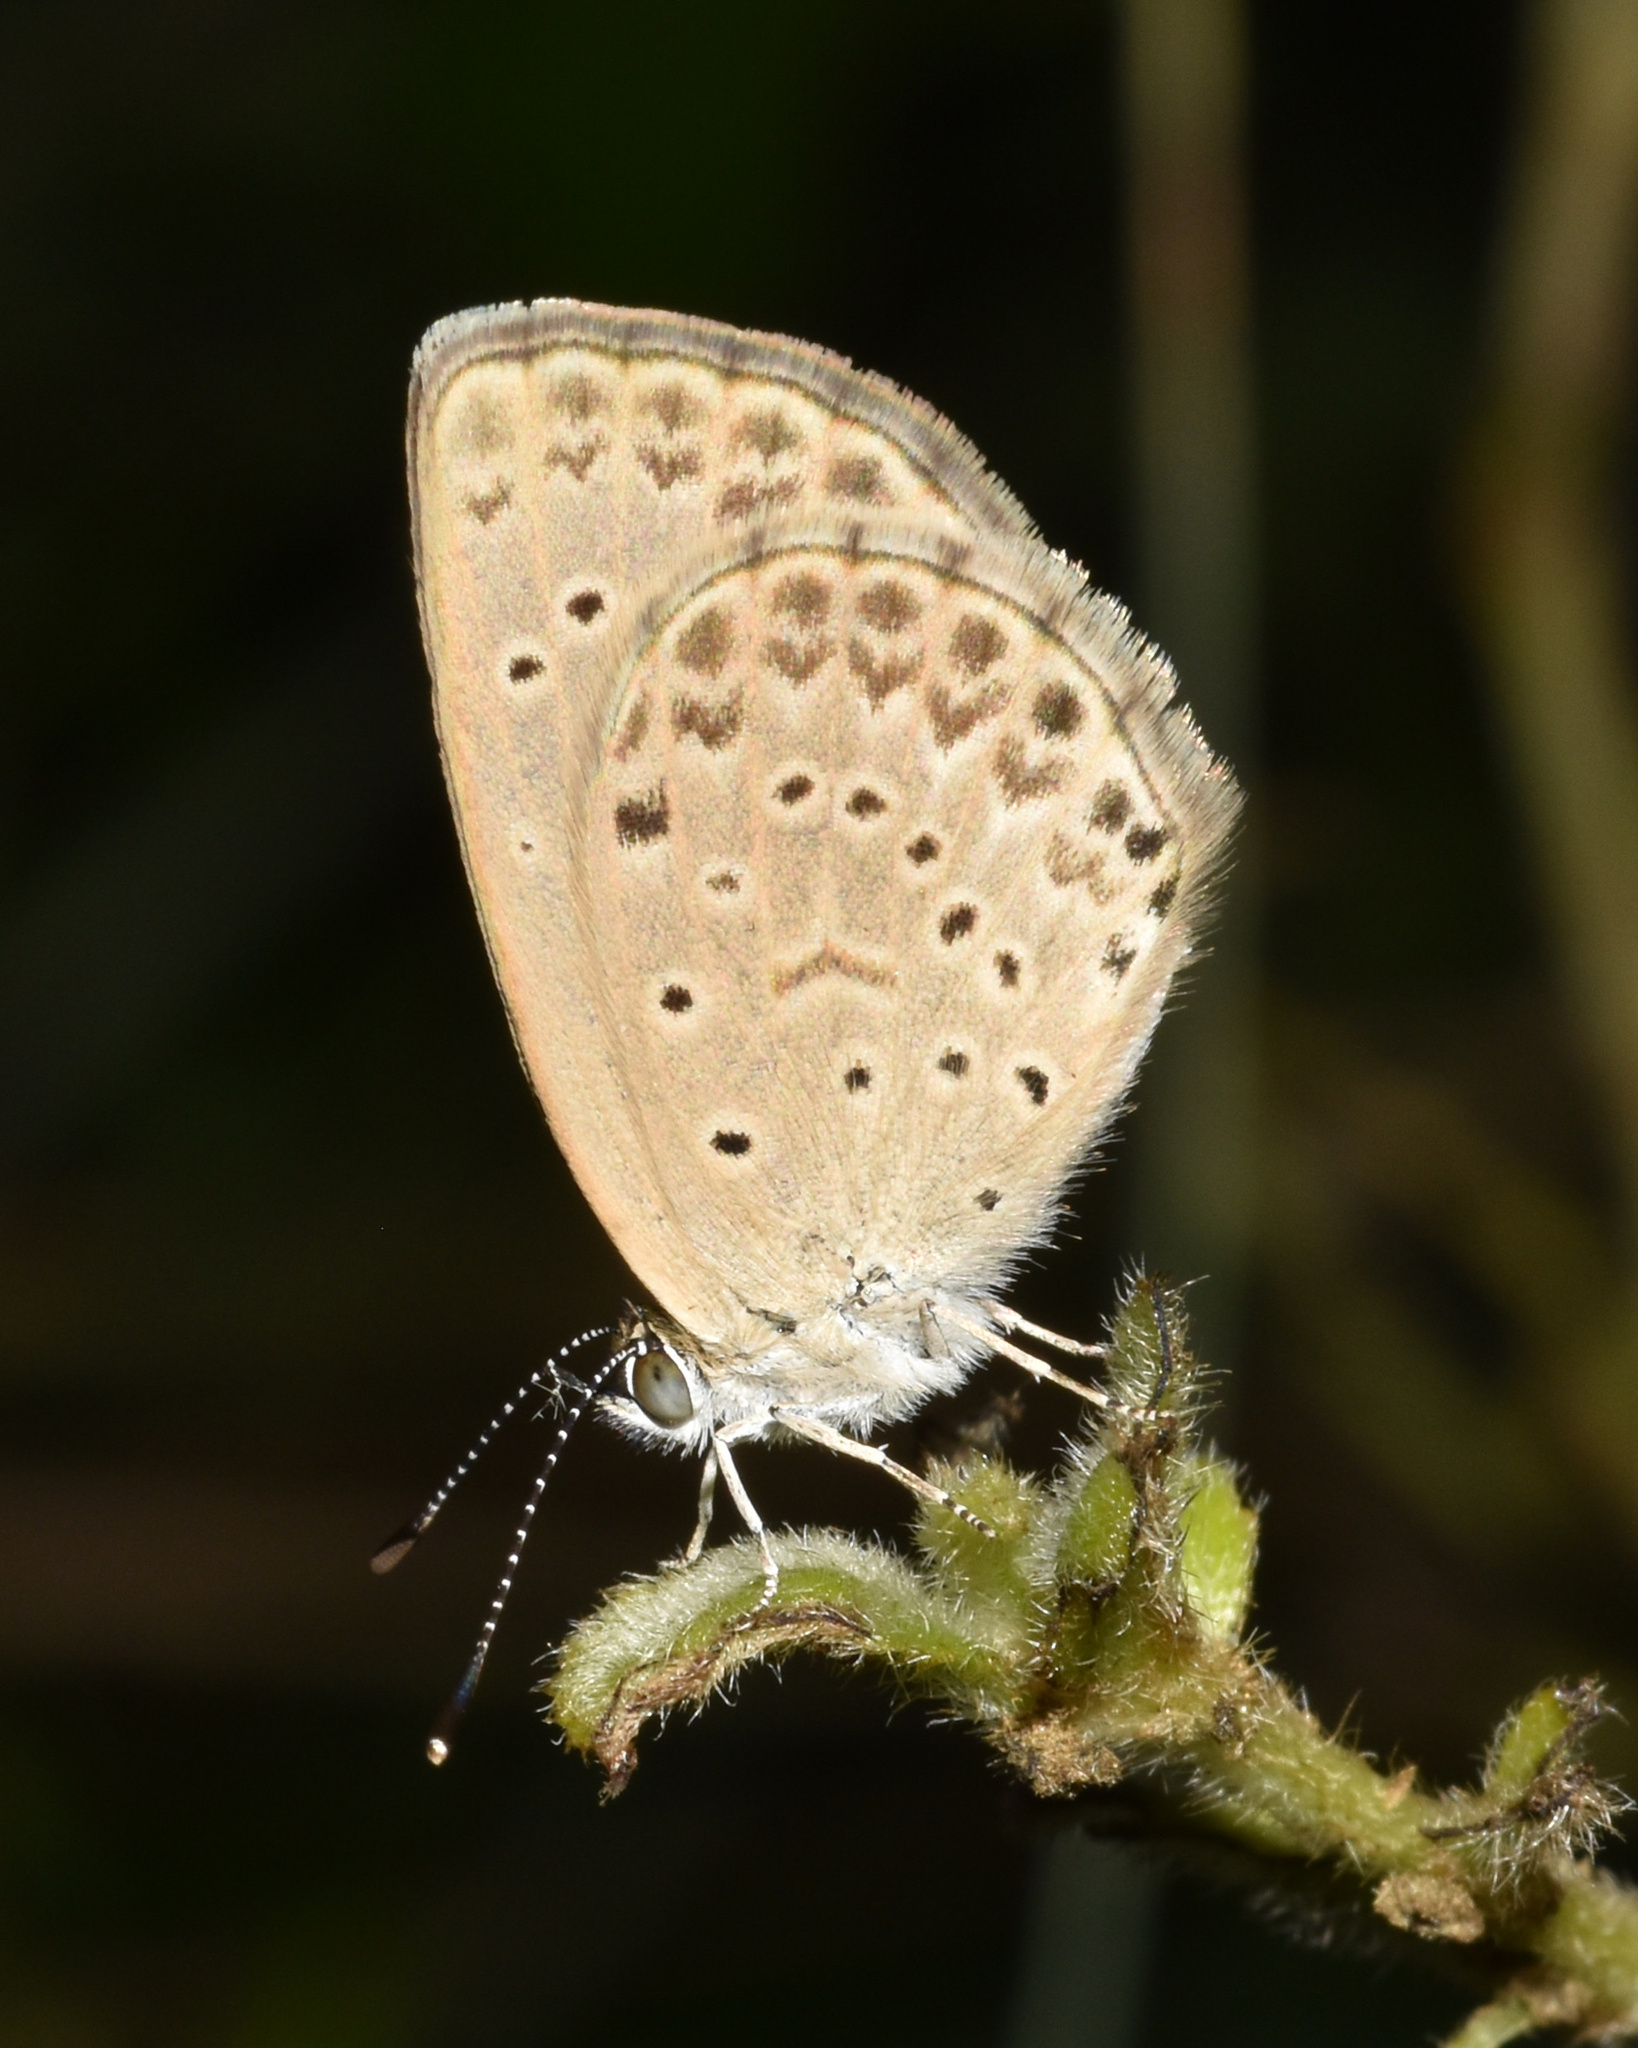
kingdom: Animalia
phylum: Arthropoda
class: Insecta
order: Lepidoptera
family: Lycaenidae
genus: Zizeeria
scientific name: Zizeeria knysna
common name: African grass blue
